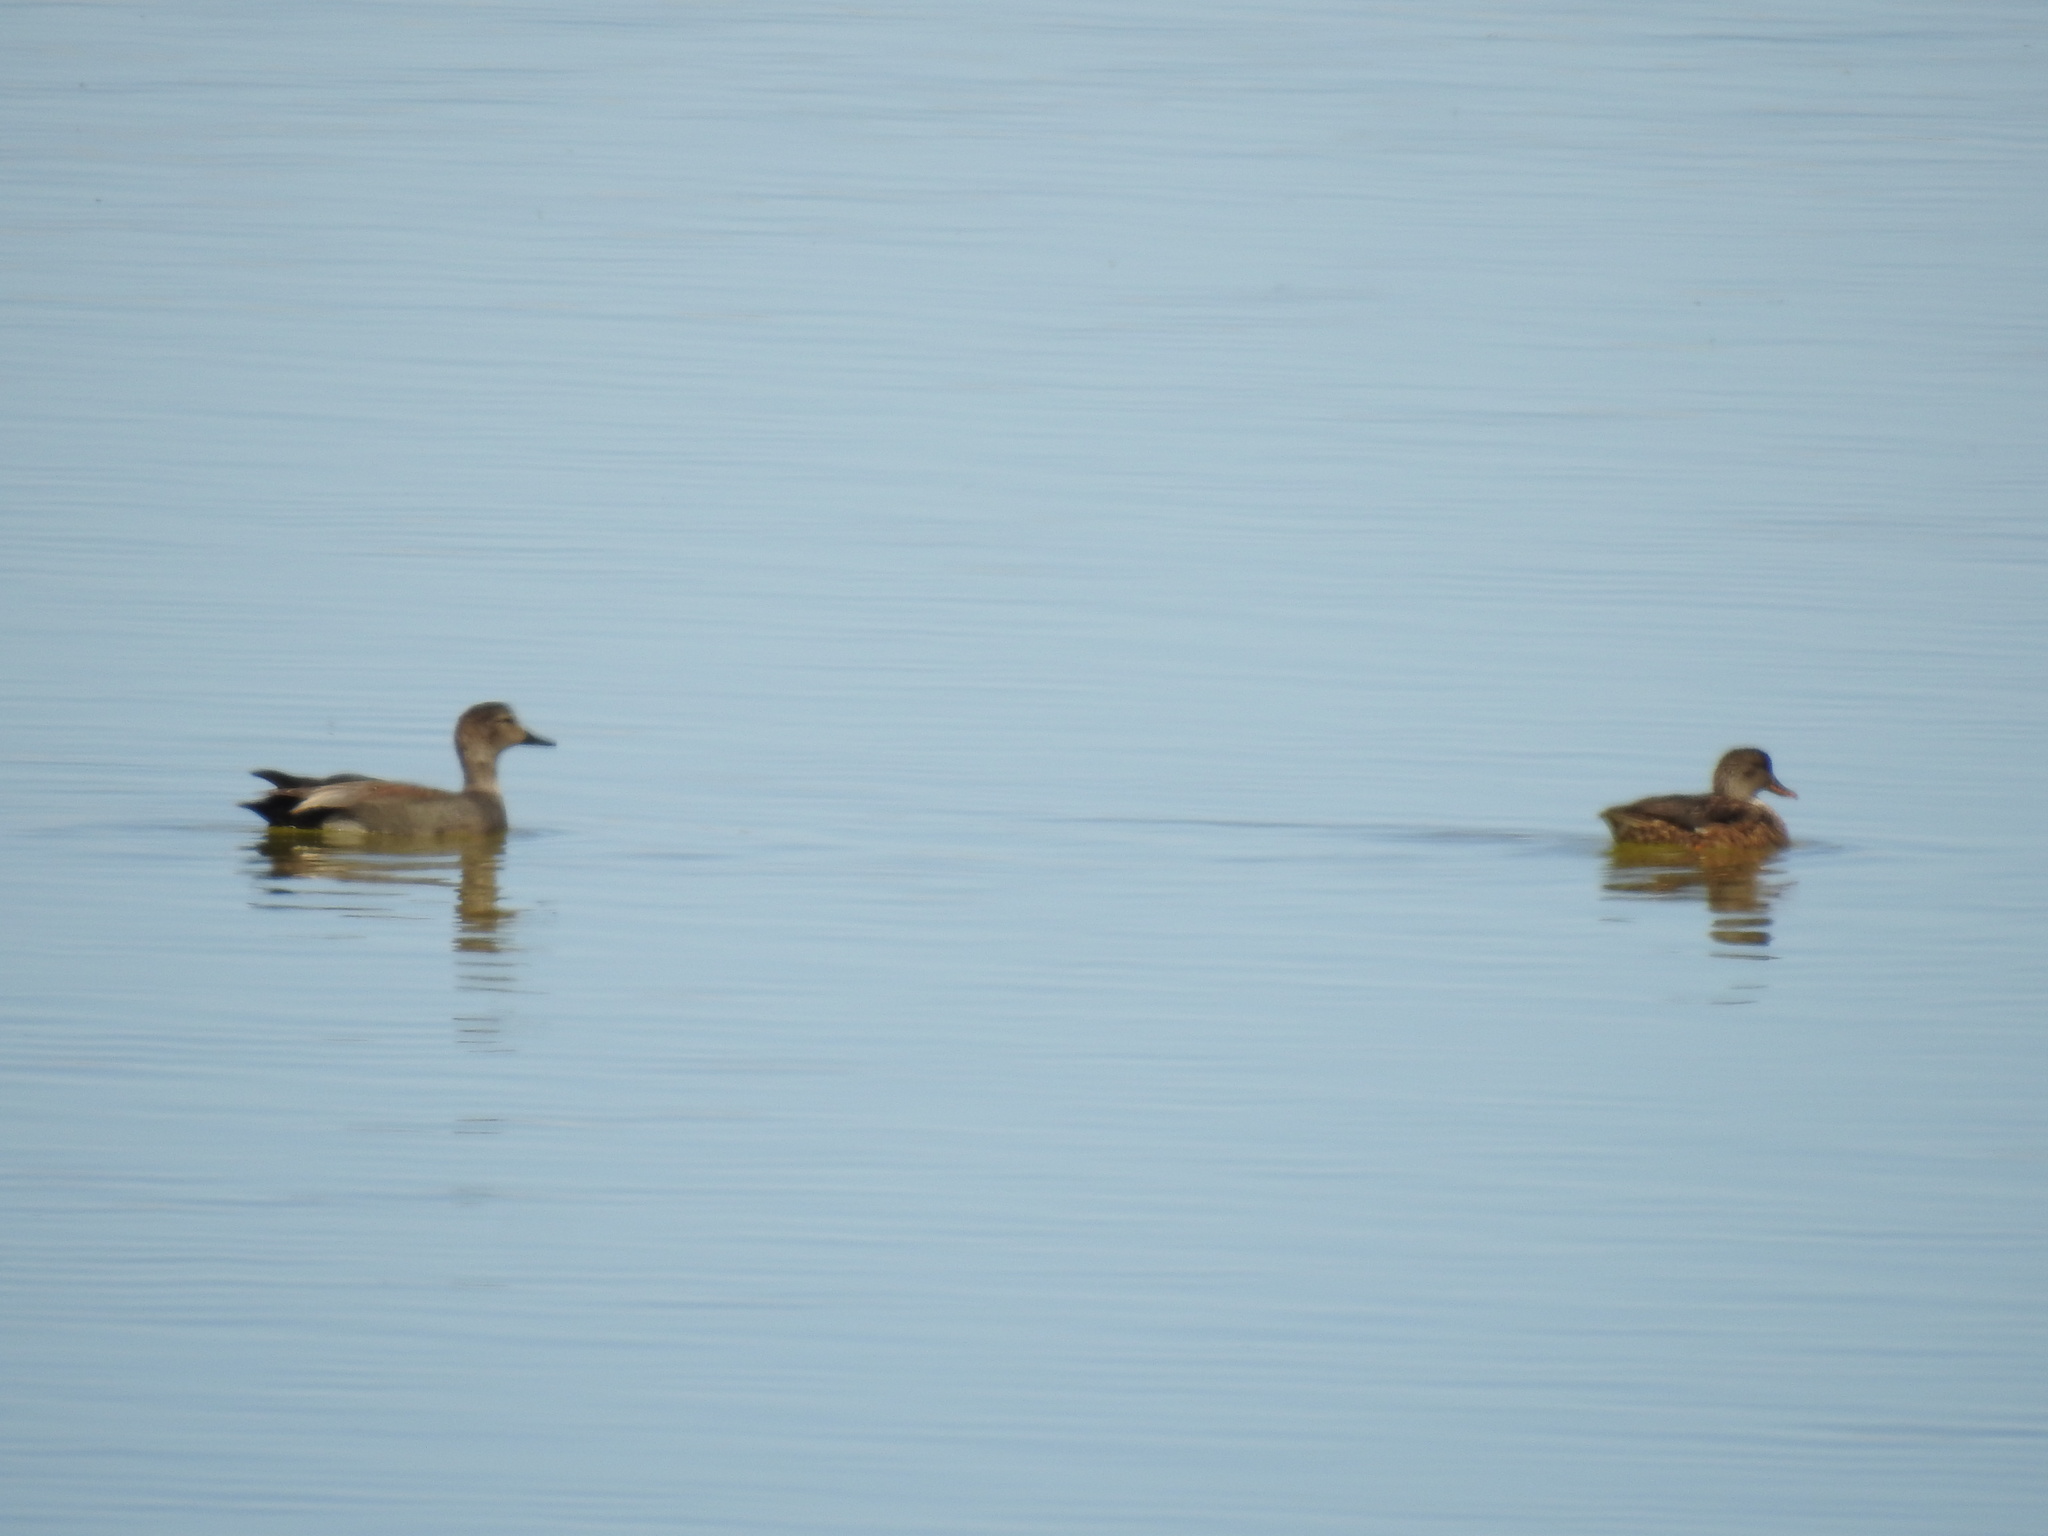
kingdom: Animalia
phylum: Chordata
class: Aves
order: Anseriformes
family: Anatidae
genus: Mareca
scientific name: Mareca strepera
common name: Gadwall
